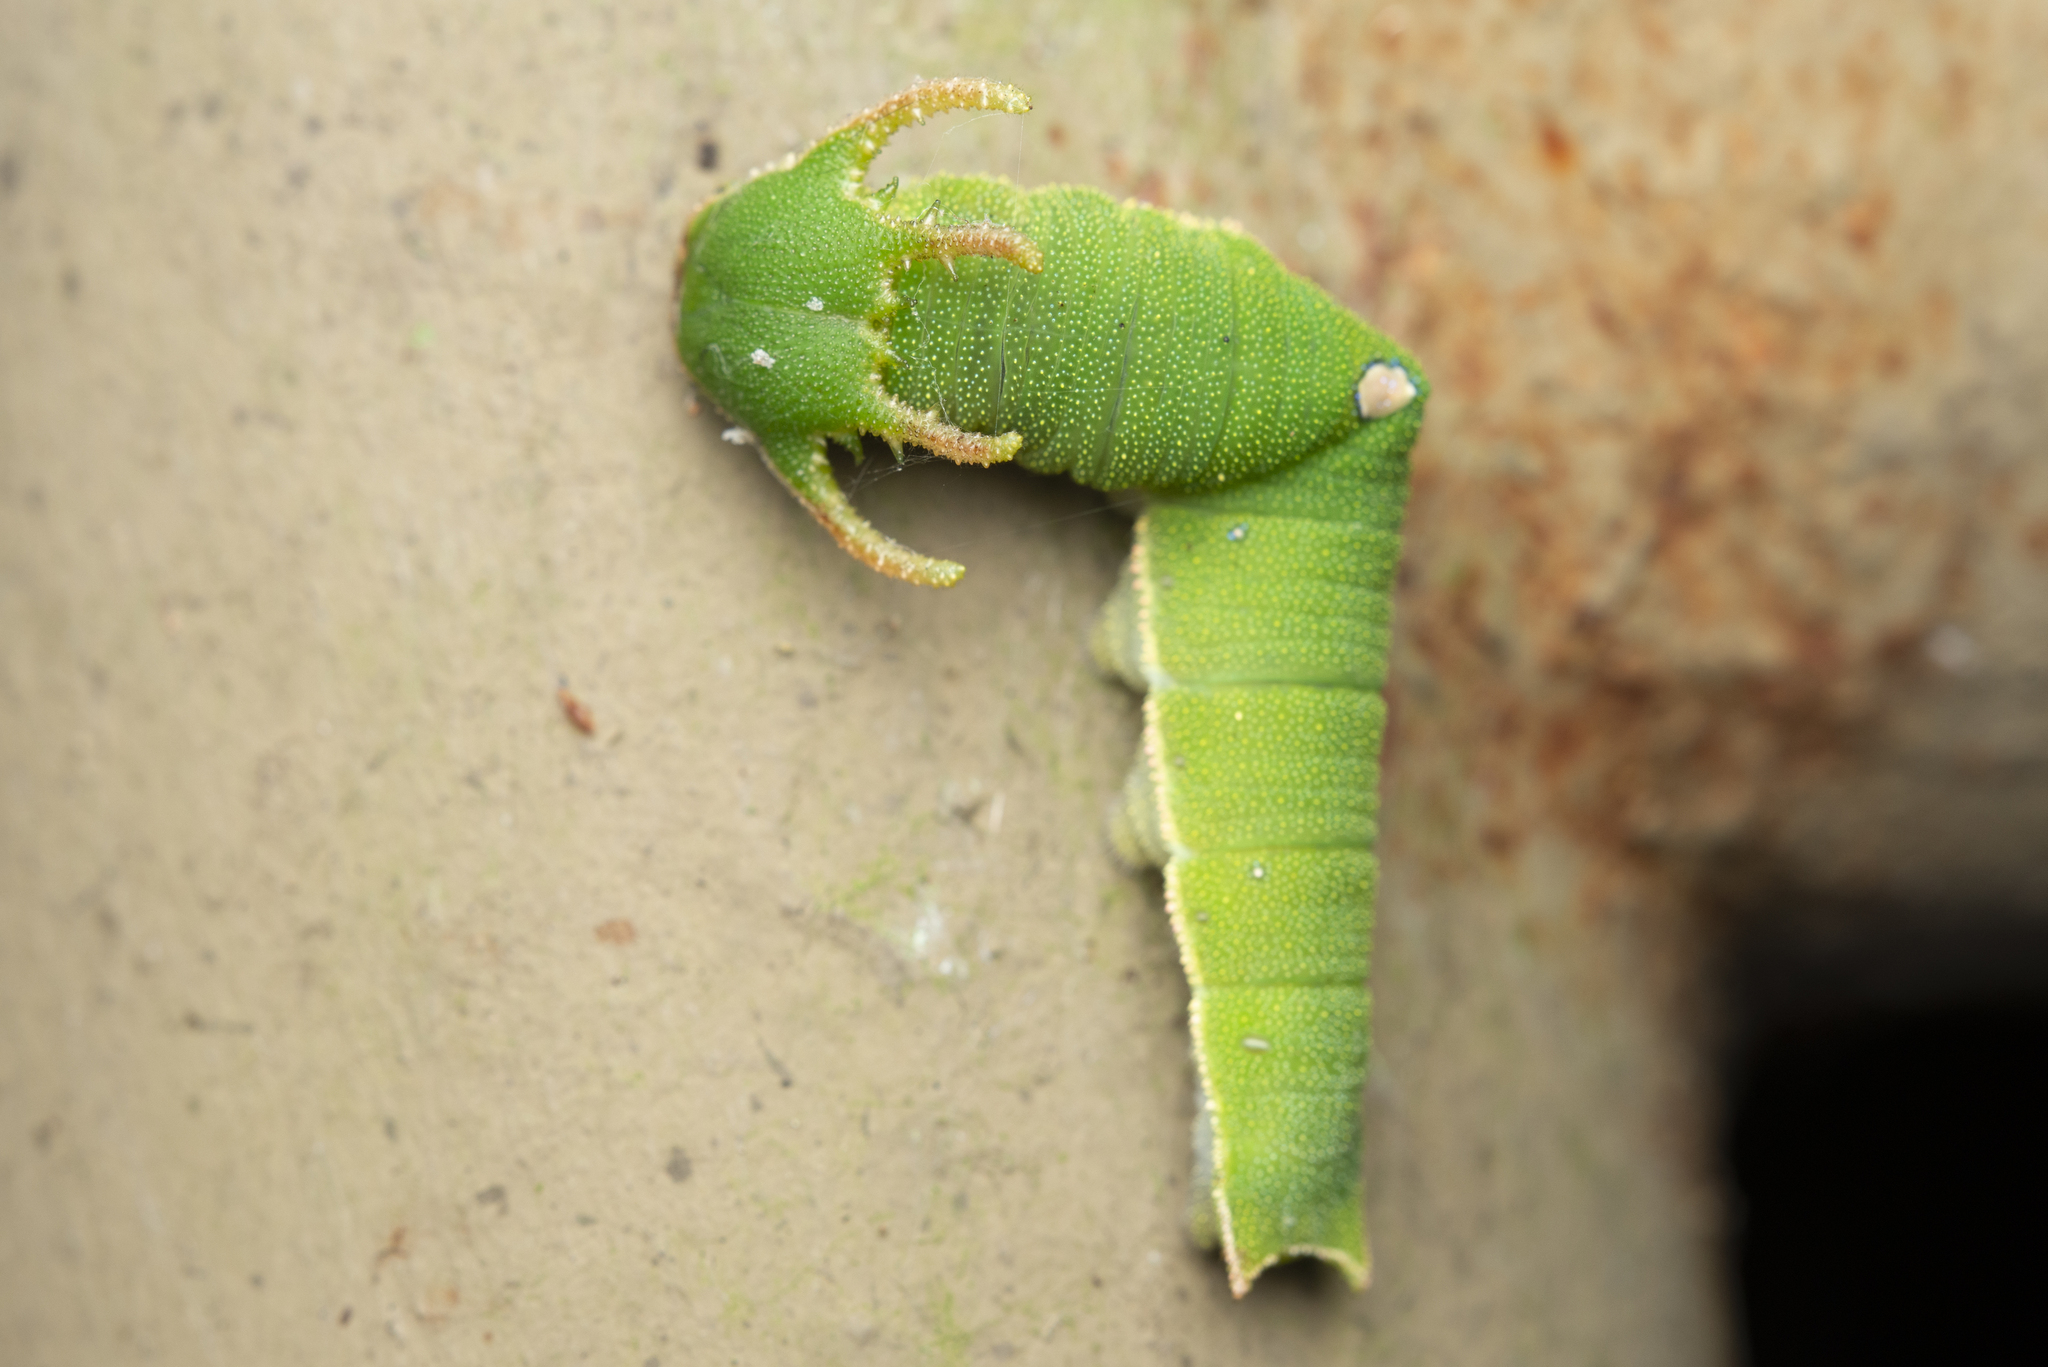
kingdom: Animalia
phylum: Arthropoda
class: Insecta
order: Lepidoptera
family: Nymphalidae
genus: Charaxes
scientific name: Charaxes bernardus
